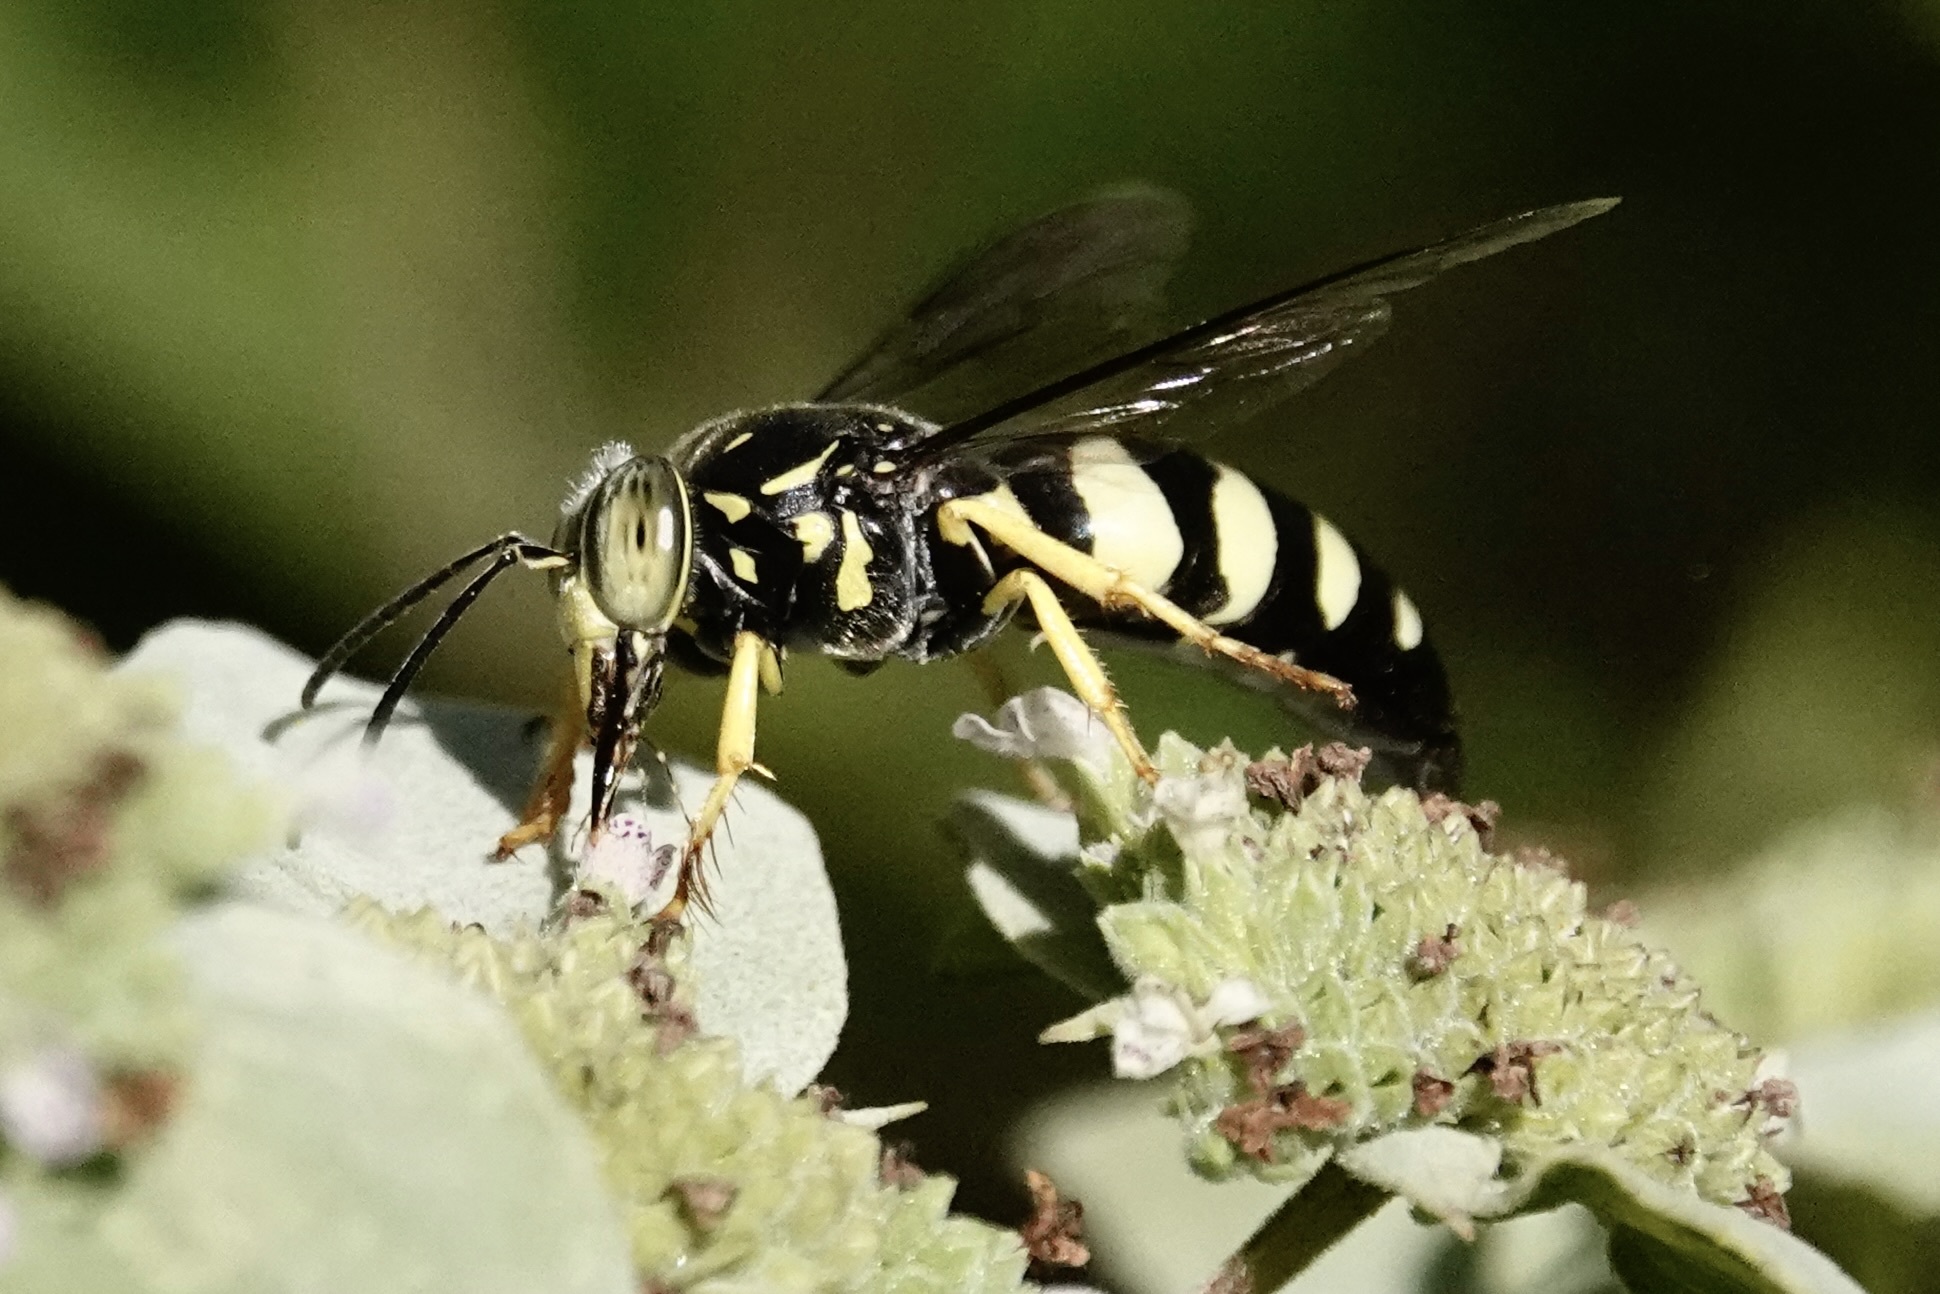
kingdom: Animalia
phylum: Arthropoda
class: Insecta
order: Hymenoptera
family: Crabronidae
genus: Bicyrtes
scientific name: Bicyrtes quadrifasciatus
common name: Four-banded stink bug hunter wasp
